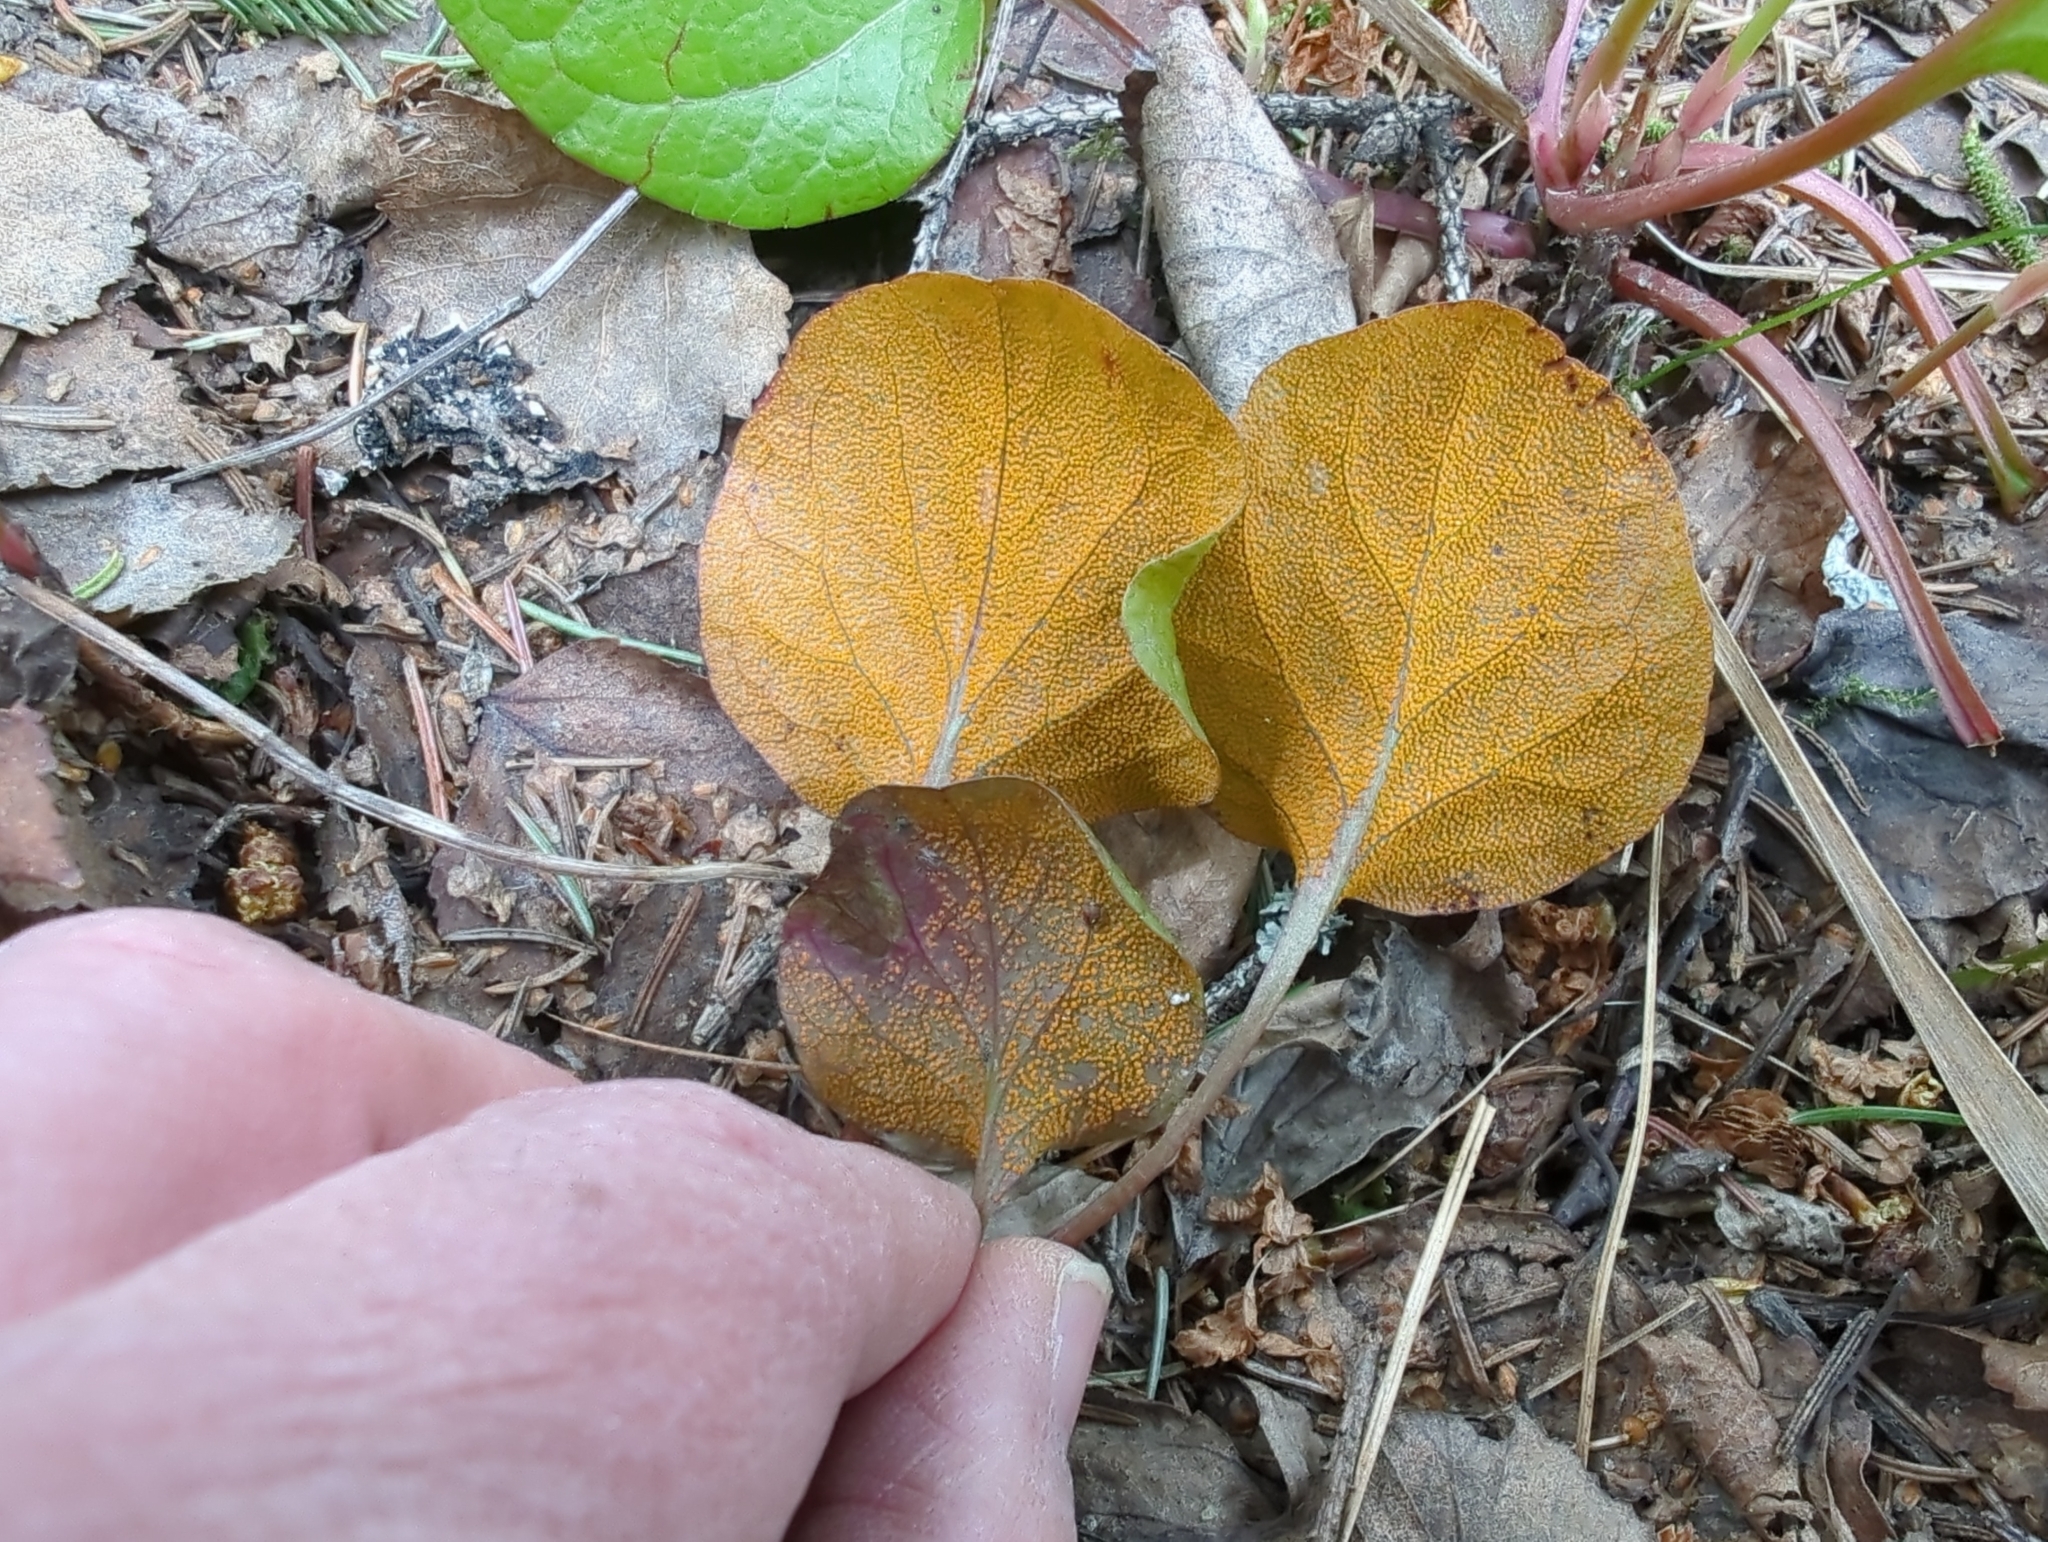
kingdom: Fungi
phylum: Basidiomycota
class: Pucciniomycetes
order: Pucciniales
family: Coleosporiaceae
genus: Rossmanomyces
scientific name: Rossmanomyces pyrolae
